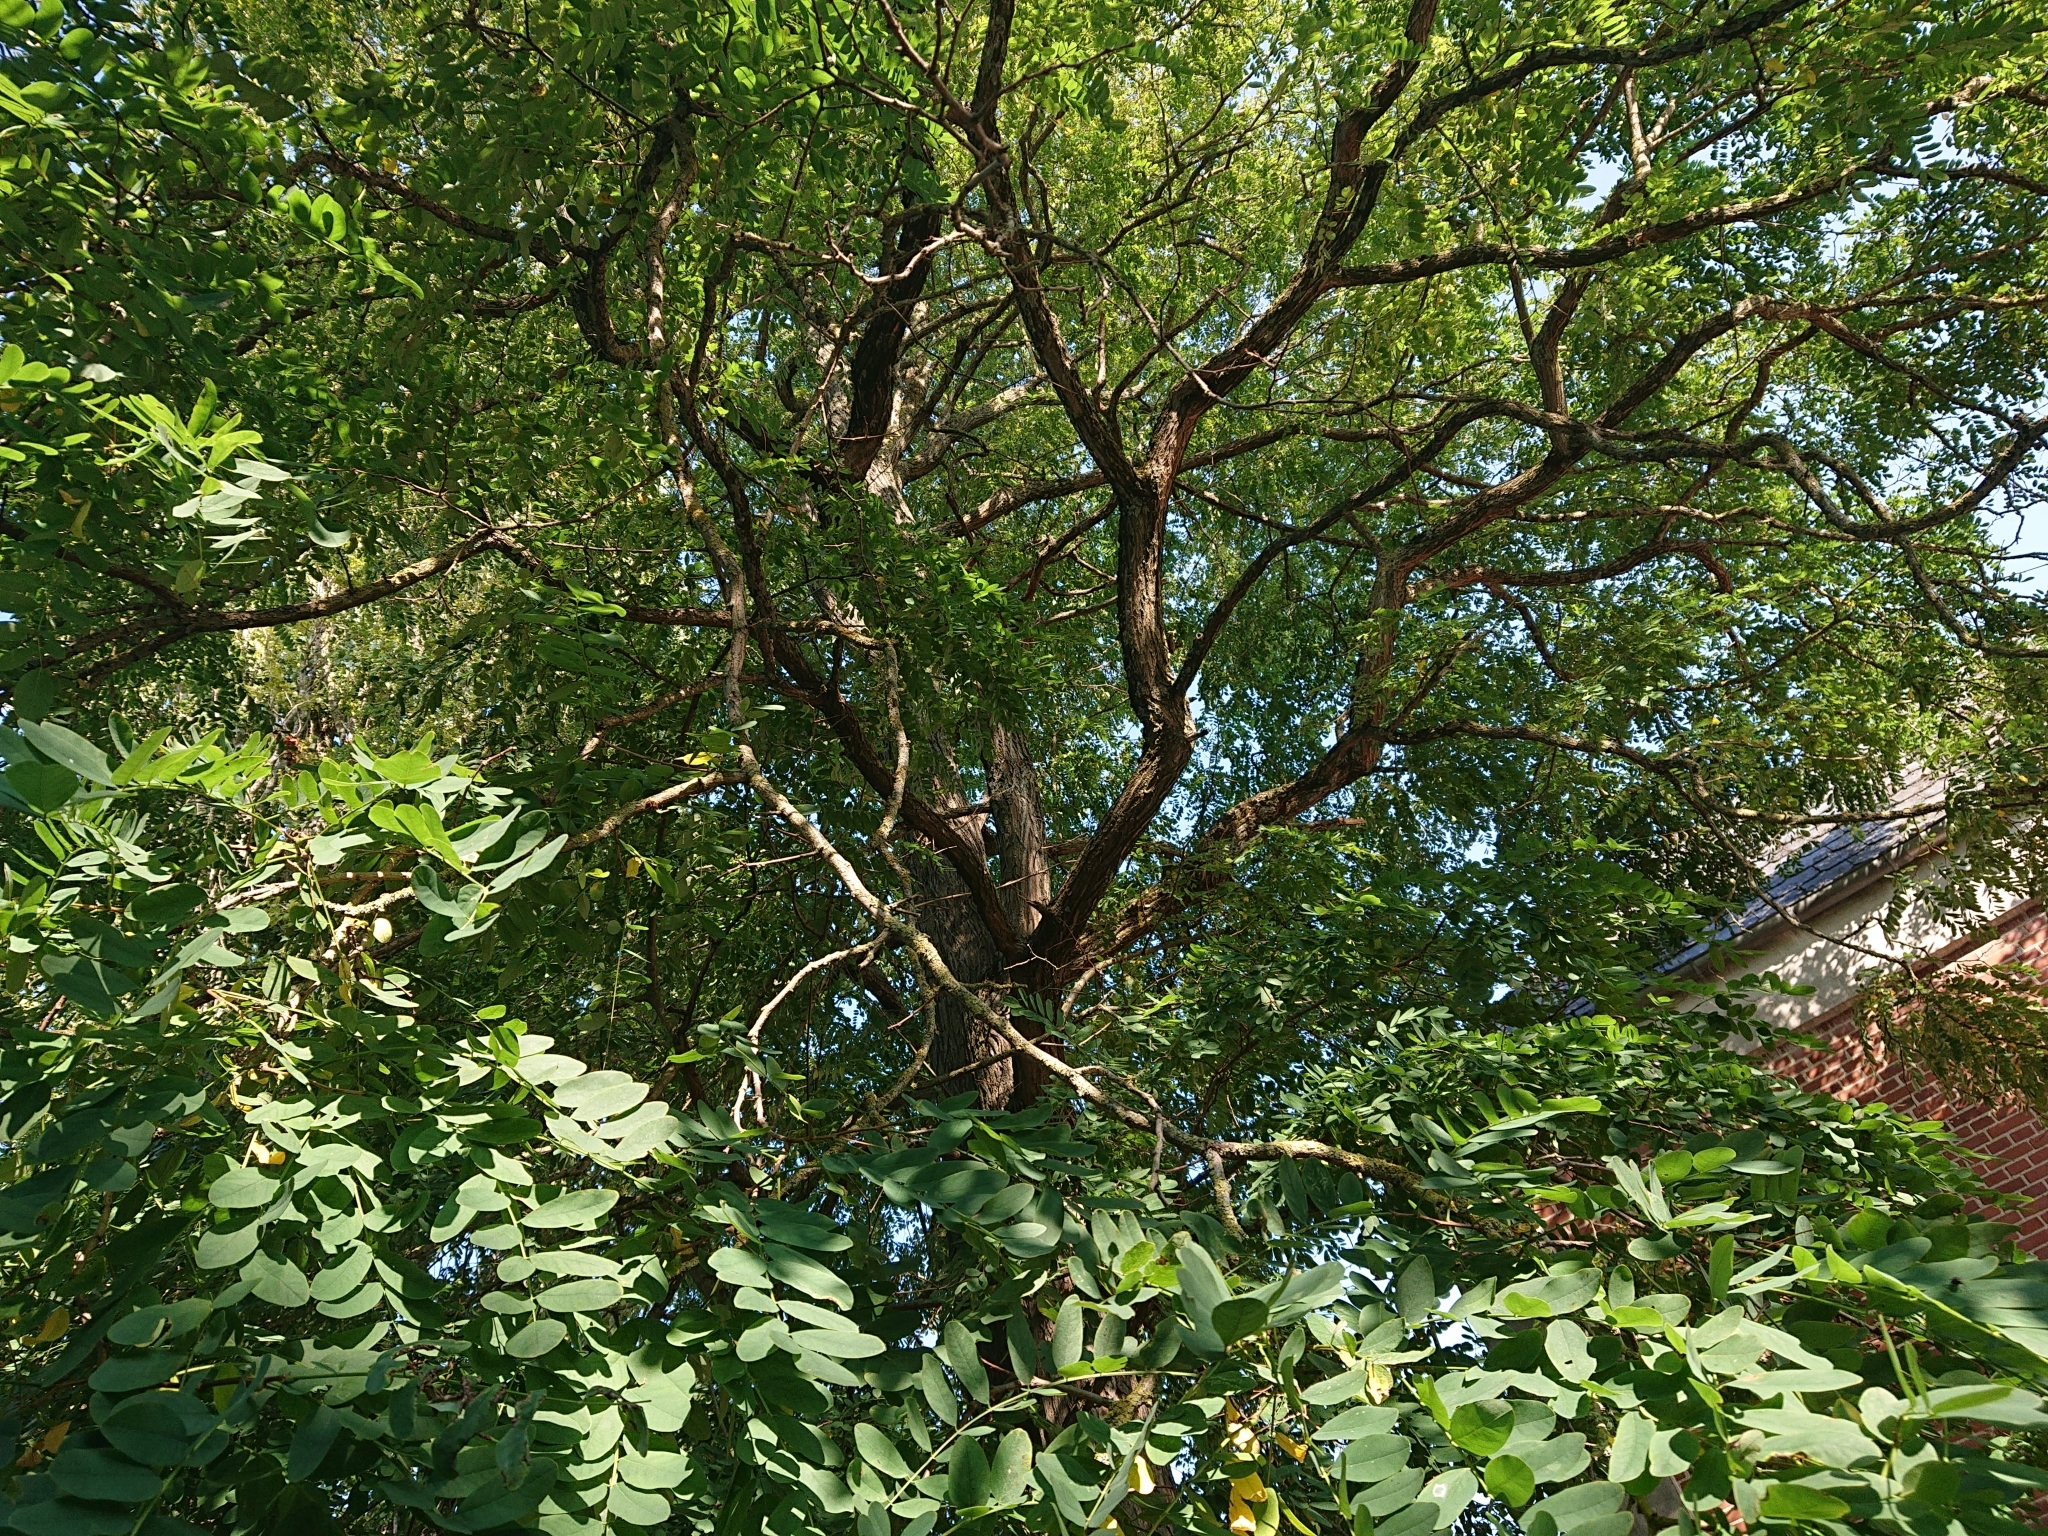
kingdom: Plantae
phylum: Tracheophyta
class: Magnoliopsida
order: Fabales
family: Fabaceae
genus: Robinia
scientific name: Robinia pseudoacacia
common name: Black locust
